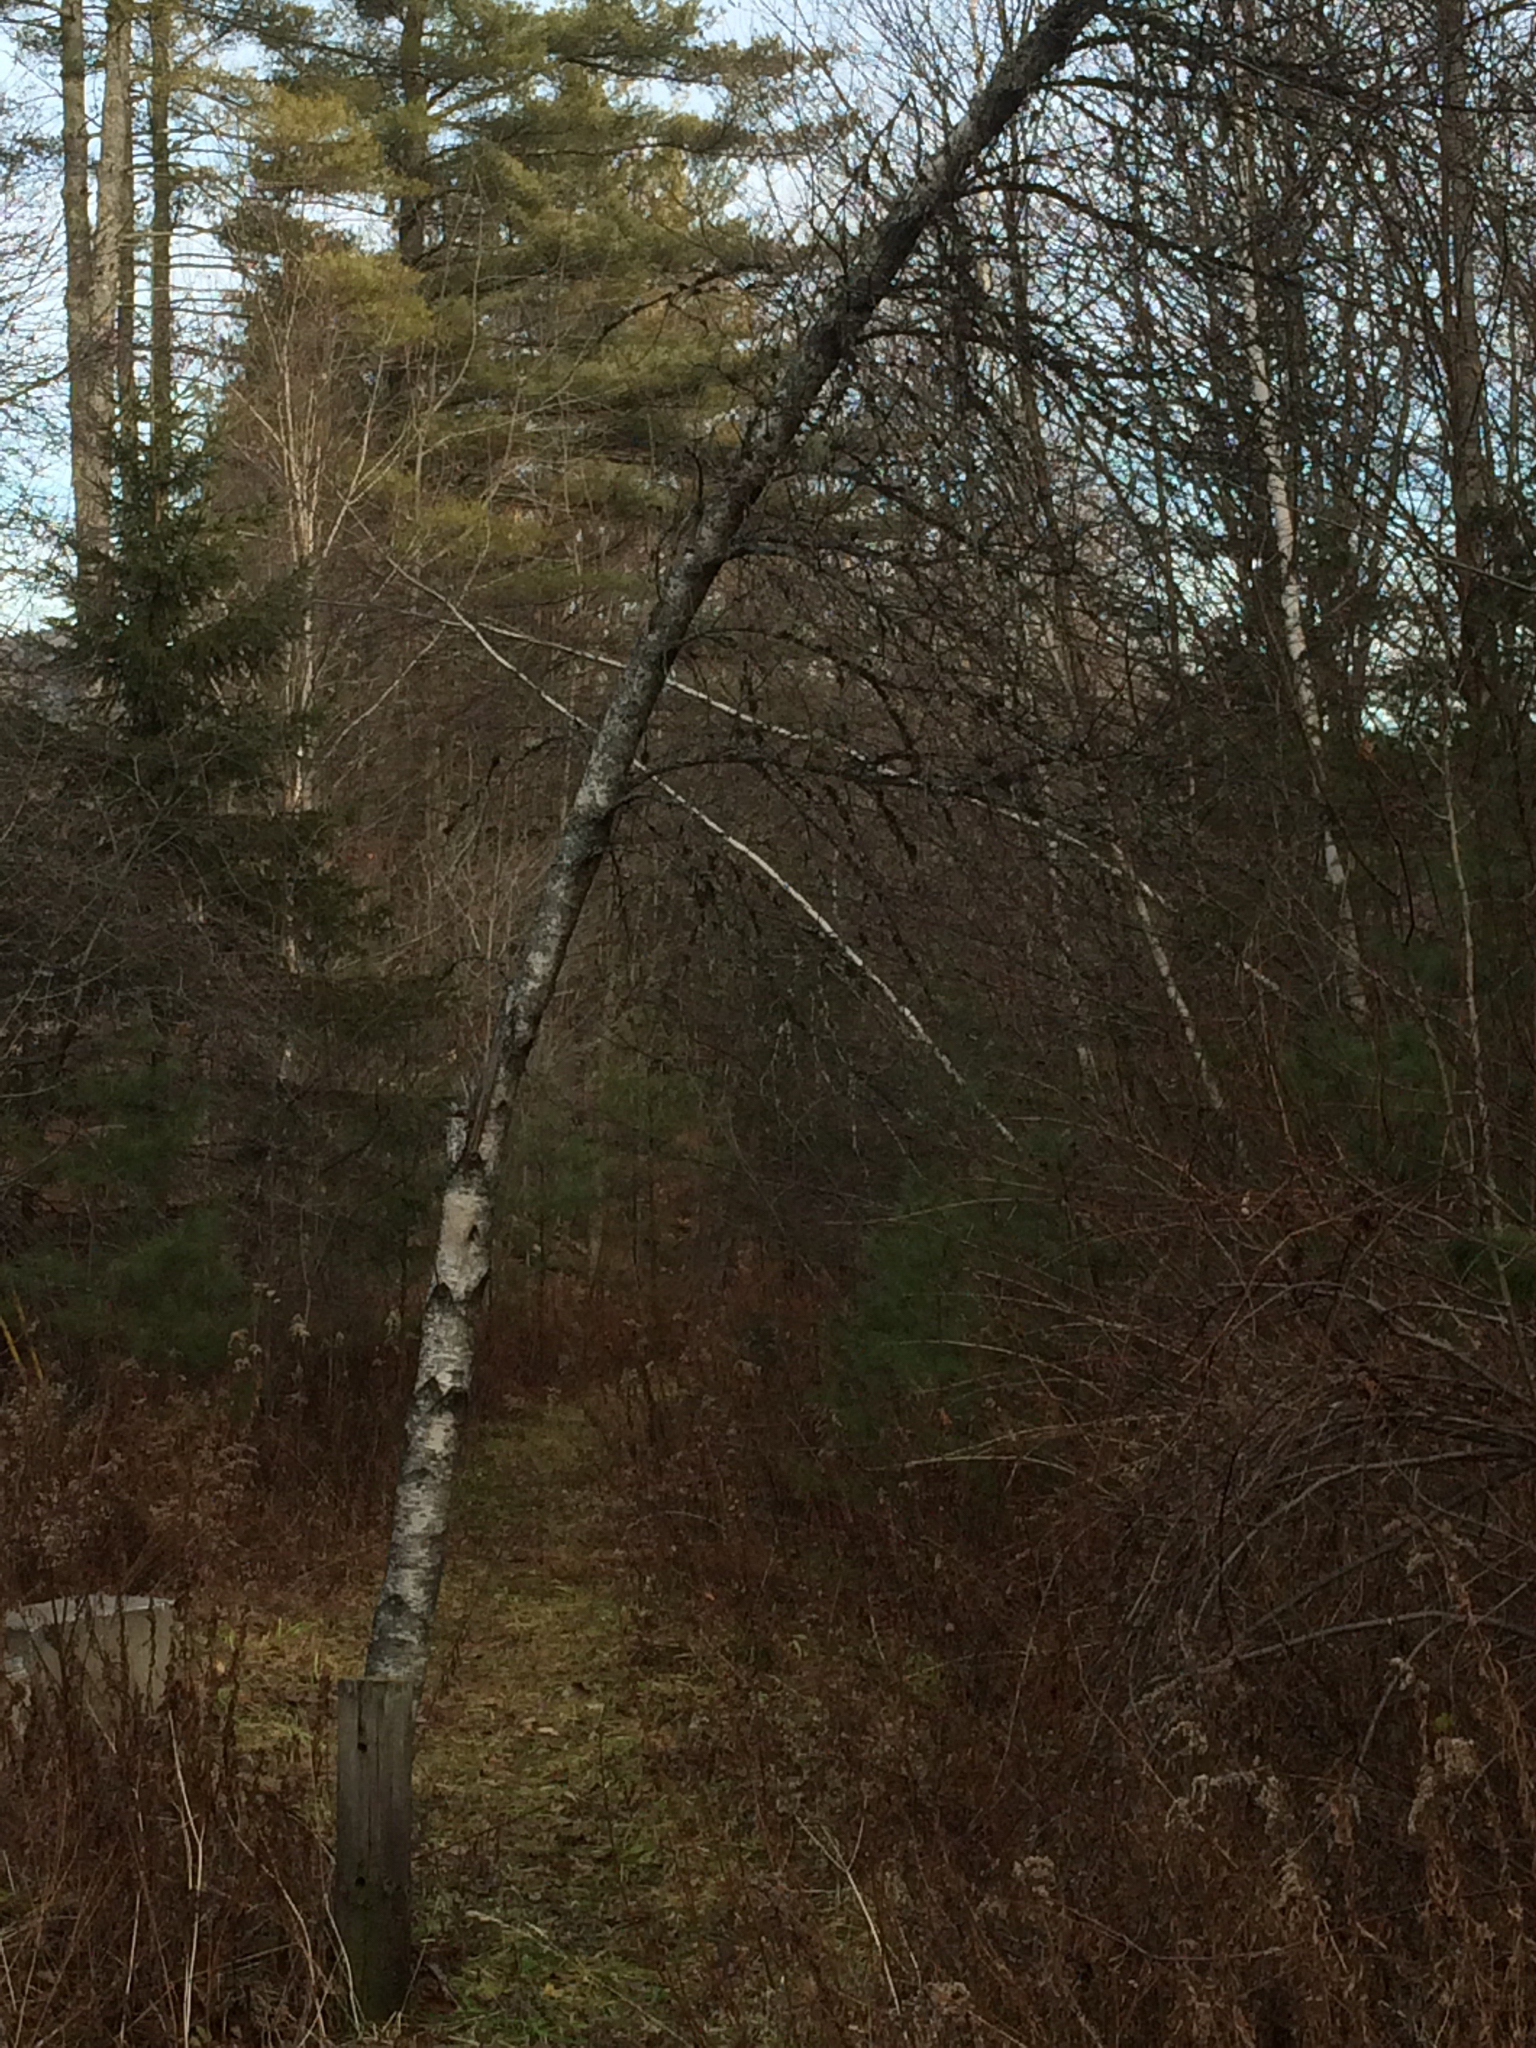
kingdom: Plantae
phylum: Tracheophyta
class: Magnoliopsida
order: Fagales
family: Betulaceae
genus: Betula
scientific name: Betula populifolia
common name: Fire birch
